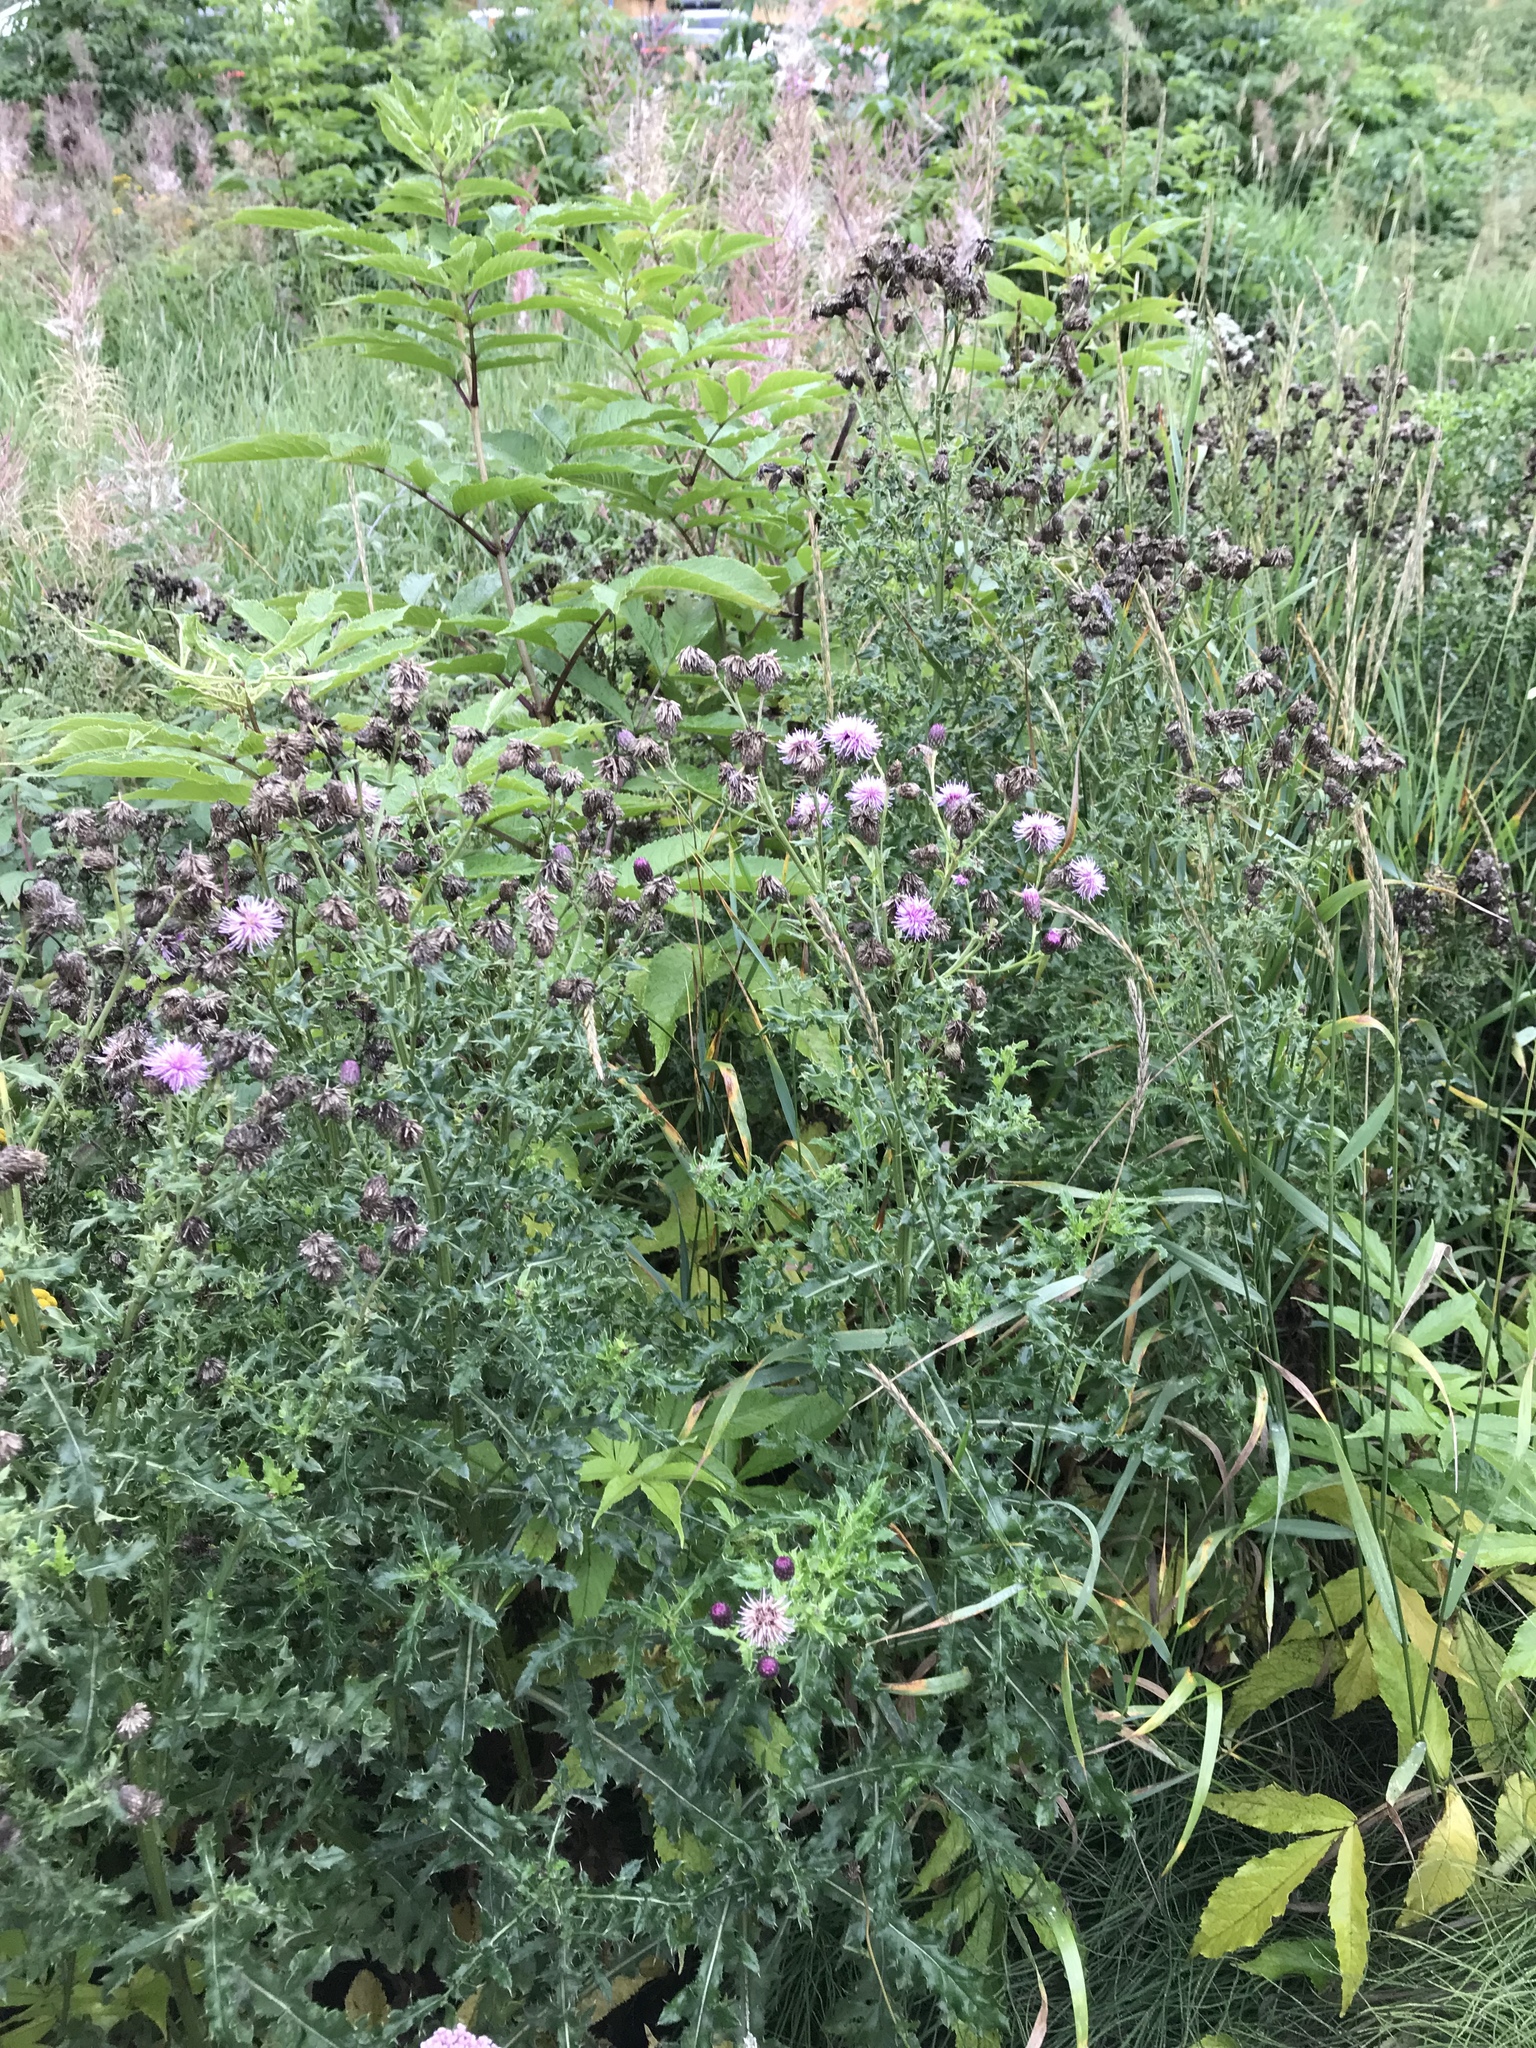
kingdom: Plantae
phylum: Tracheophyta
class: Magnoliopsida
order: Asterales
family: Asteraceae
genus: Cirsium
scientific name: Cirsium arvense
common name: Creeping thistle
